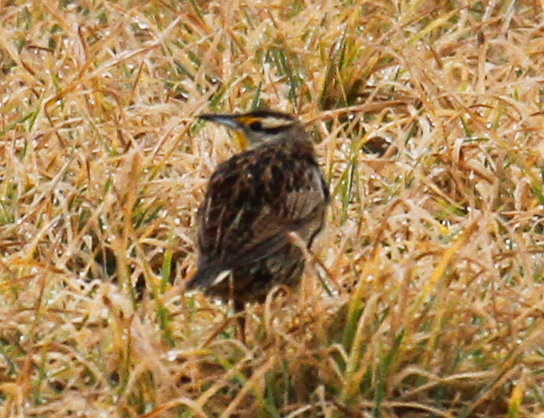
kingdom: Animalia
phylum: Chordata
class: Aves
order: Passeriformes
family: Icteridae
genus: Sturnella
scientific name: Sturnella magna
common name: Eastern meadowlark
